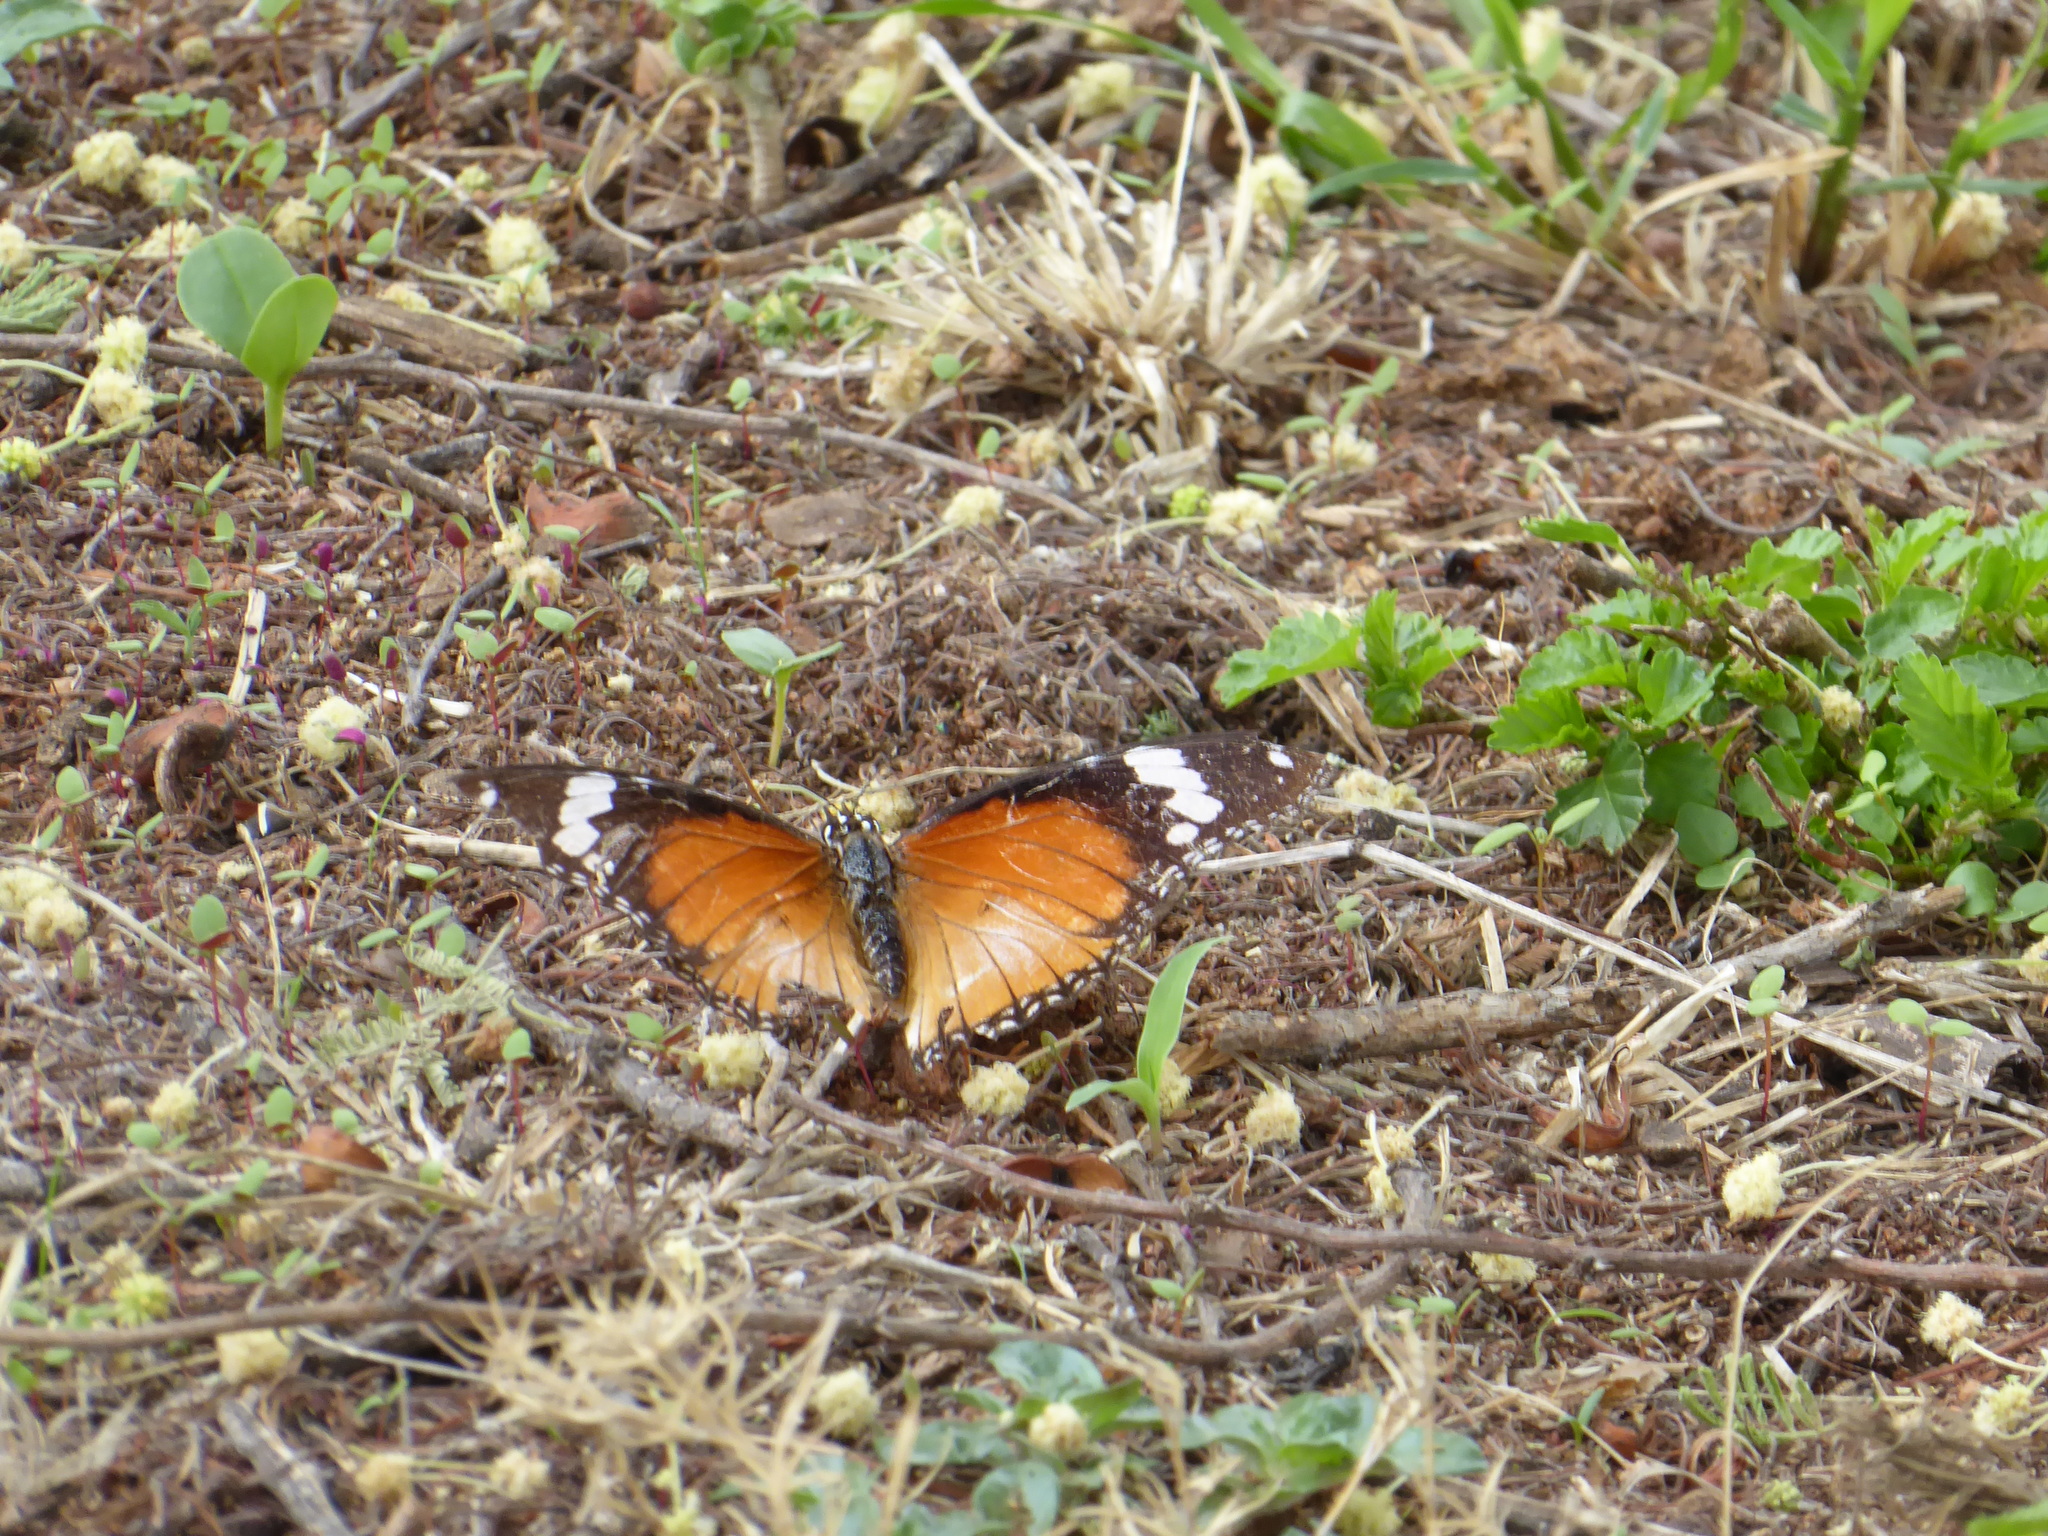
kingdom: Animalia
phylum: Arthropoda
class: Insecta
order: Lepidoptera
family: Nymphalidae
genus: Hypolimnas
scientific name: Hypolimnas misippus
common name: False plain tiger
